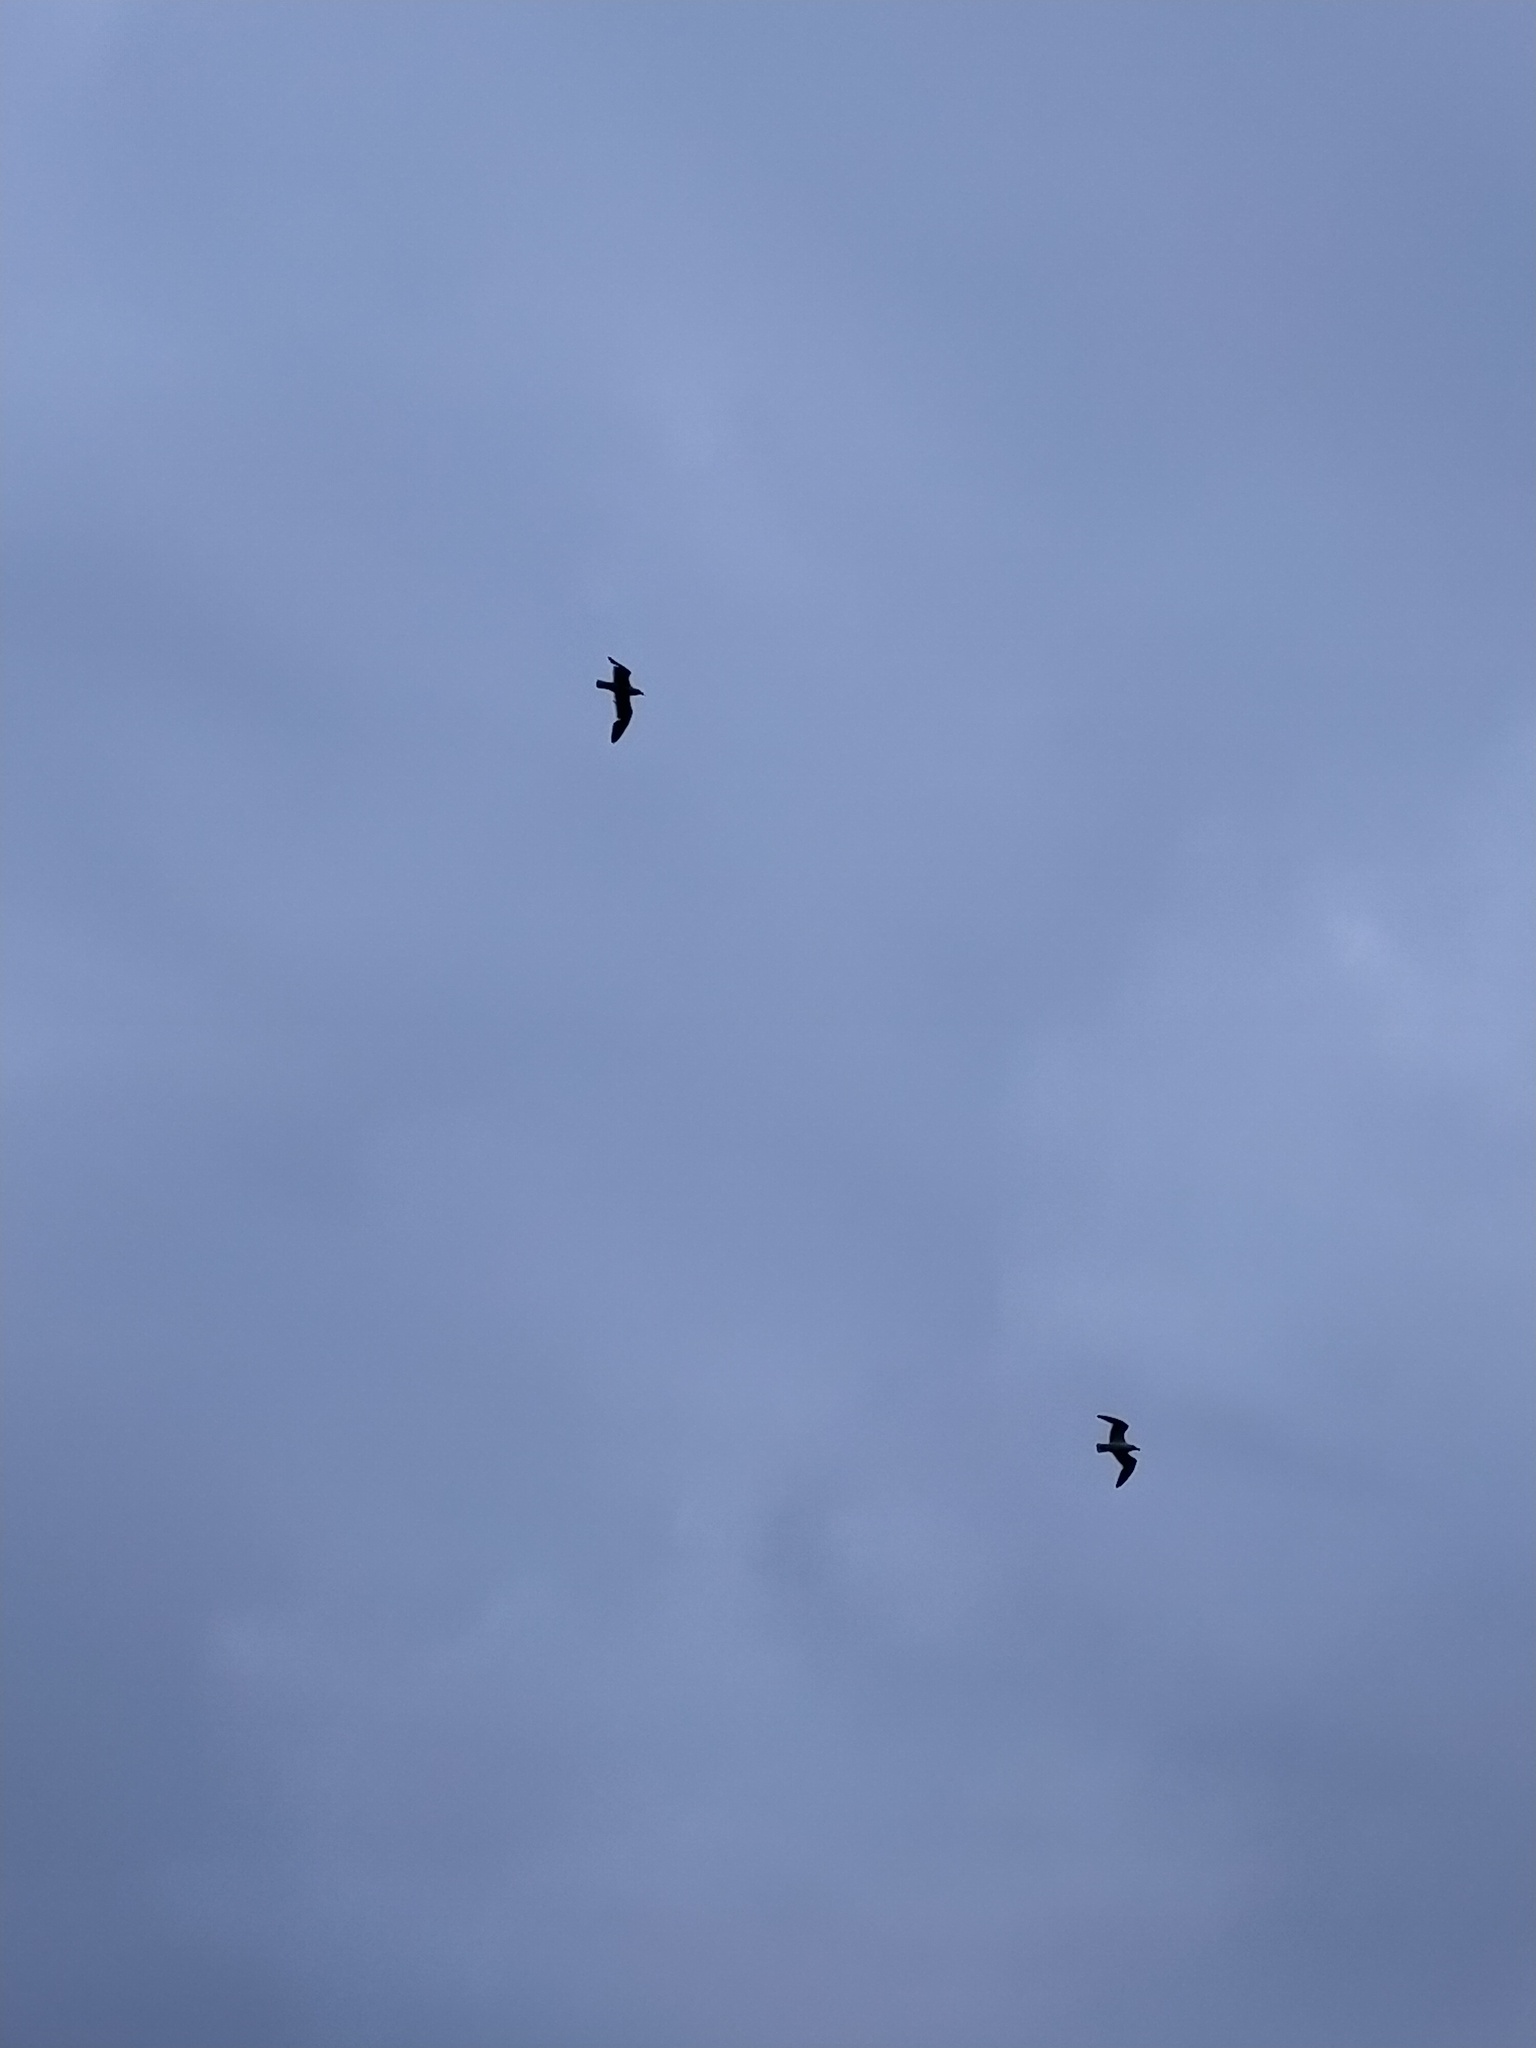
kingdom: Animalia
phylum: Chordata
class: Aves
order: Charadriiformes
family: Stercorariidae
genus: Stercorarius
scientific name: Stercorarius antarcticus
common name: Brown skua
